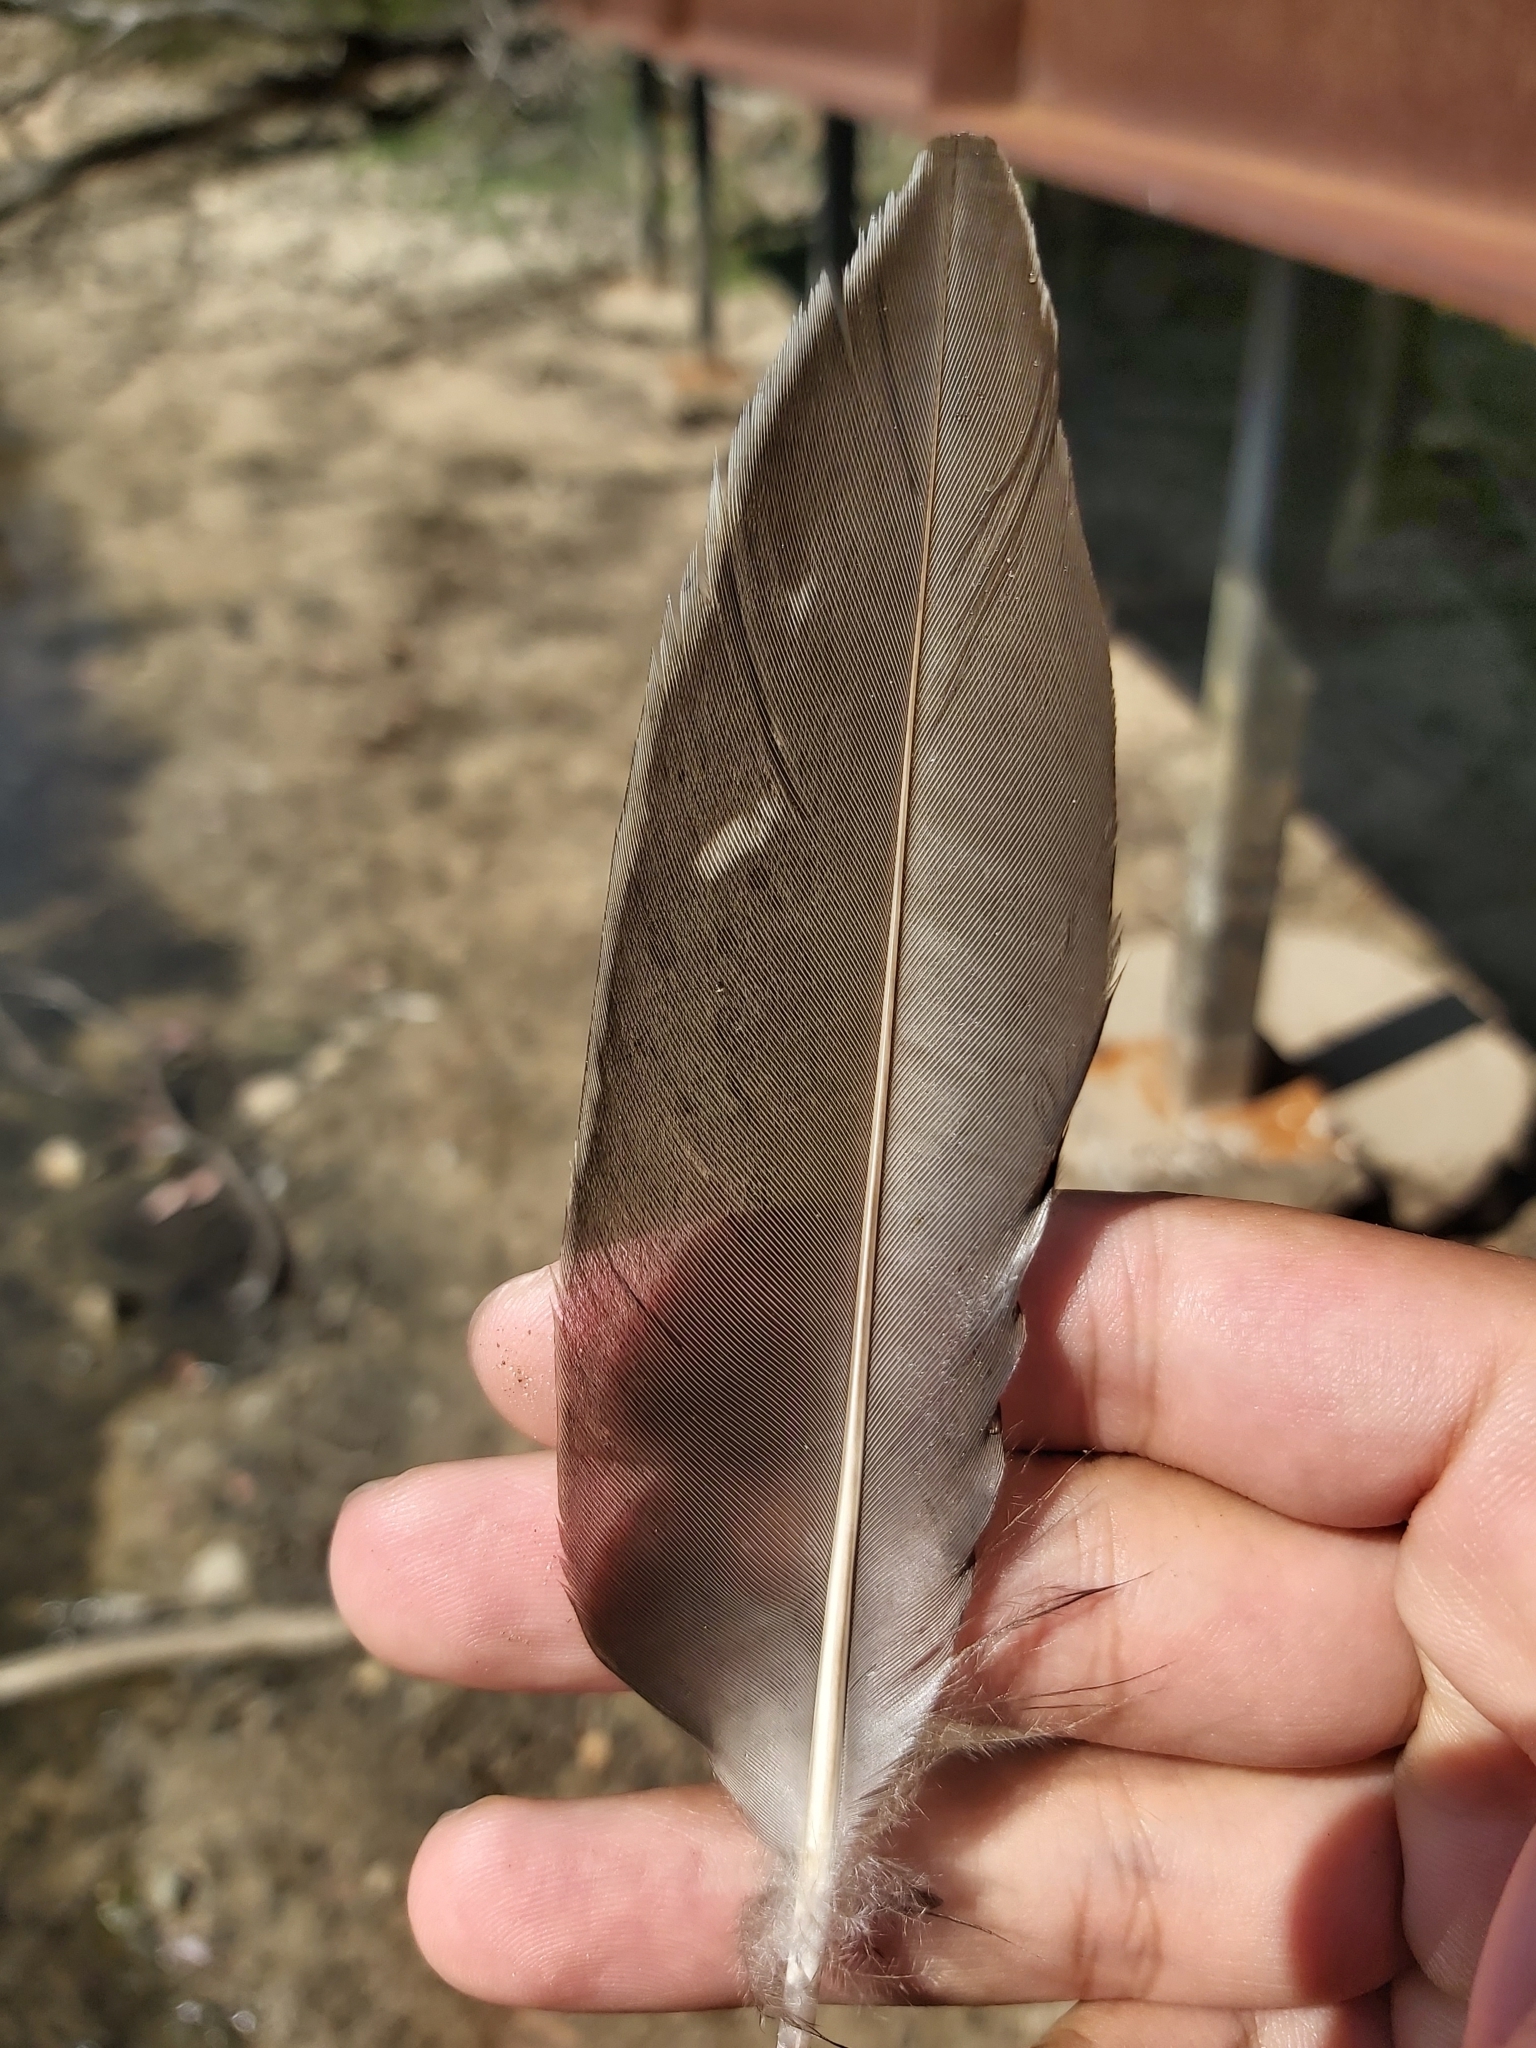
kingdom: Animalia
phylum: Chordata
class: Aves
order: Anseriformes
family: Anatidae
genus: Anas
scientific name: Anas superciliosa
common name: Pacific black duck
